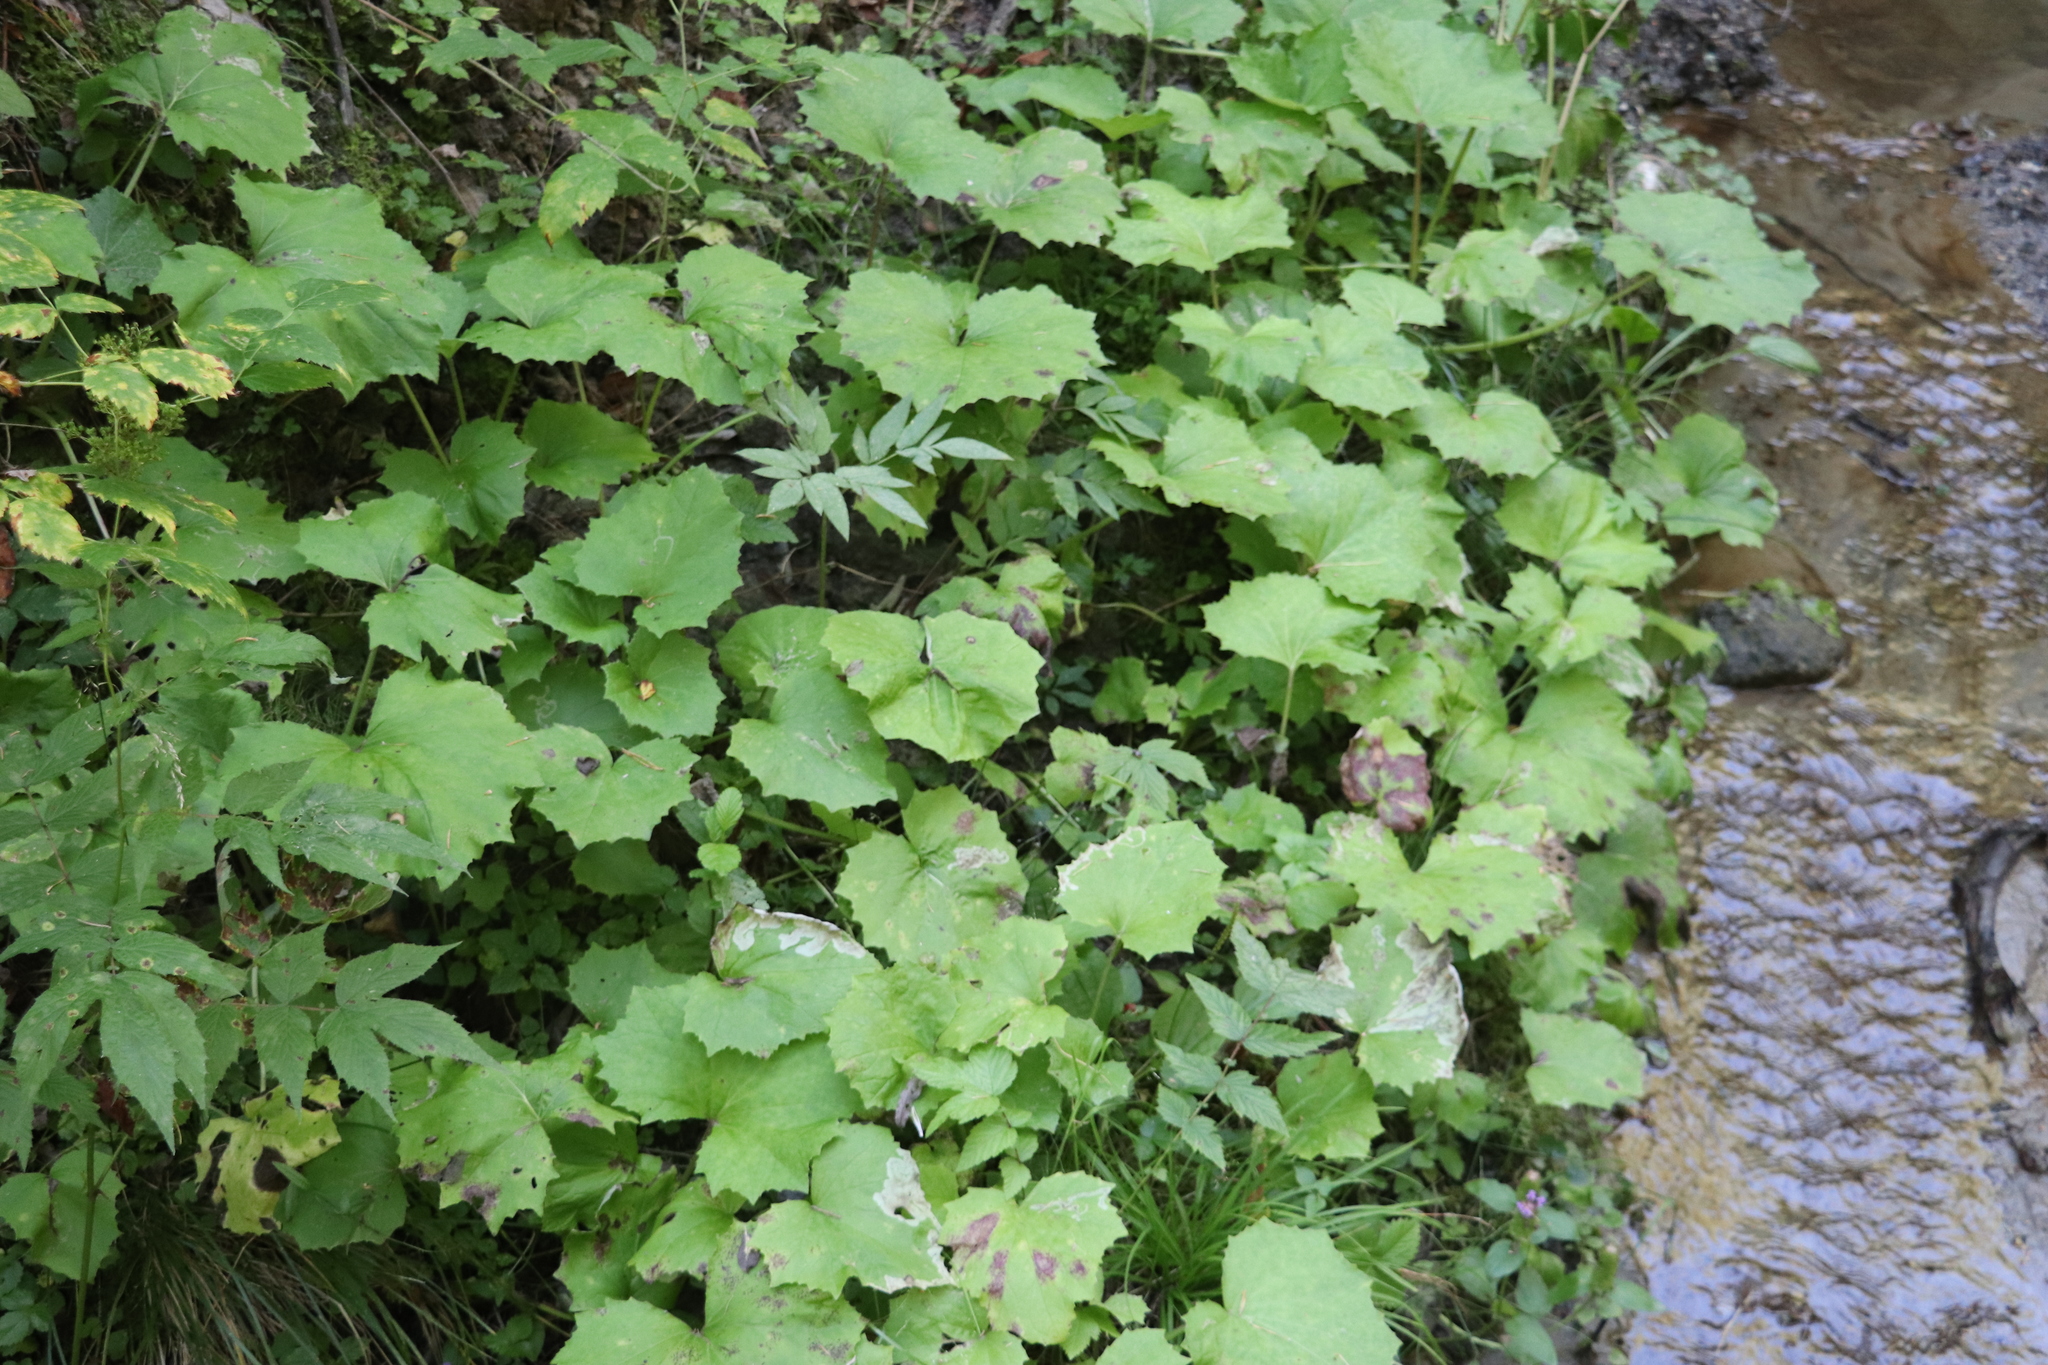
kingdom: Plantae
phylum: Tracheophyta
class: Magnoliopsida
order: Asterales
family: Asteraceae
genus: Tussilago
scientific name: Tussilago farfara
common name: Coltsfoot
